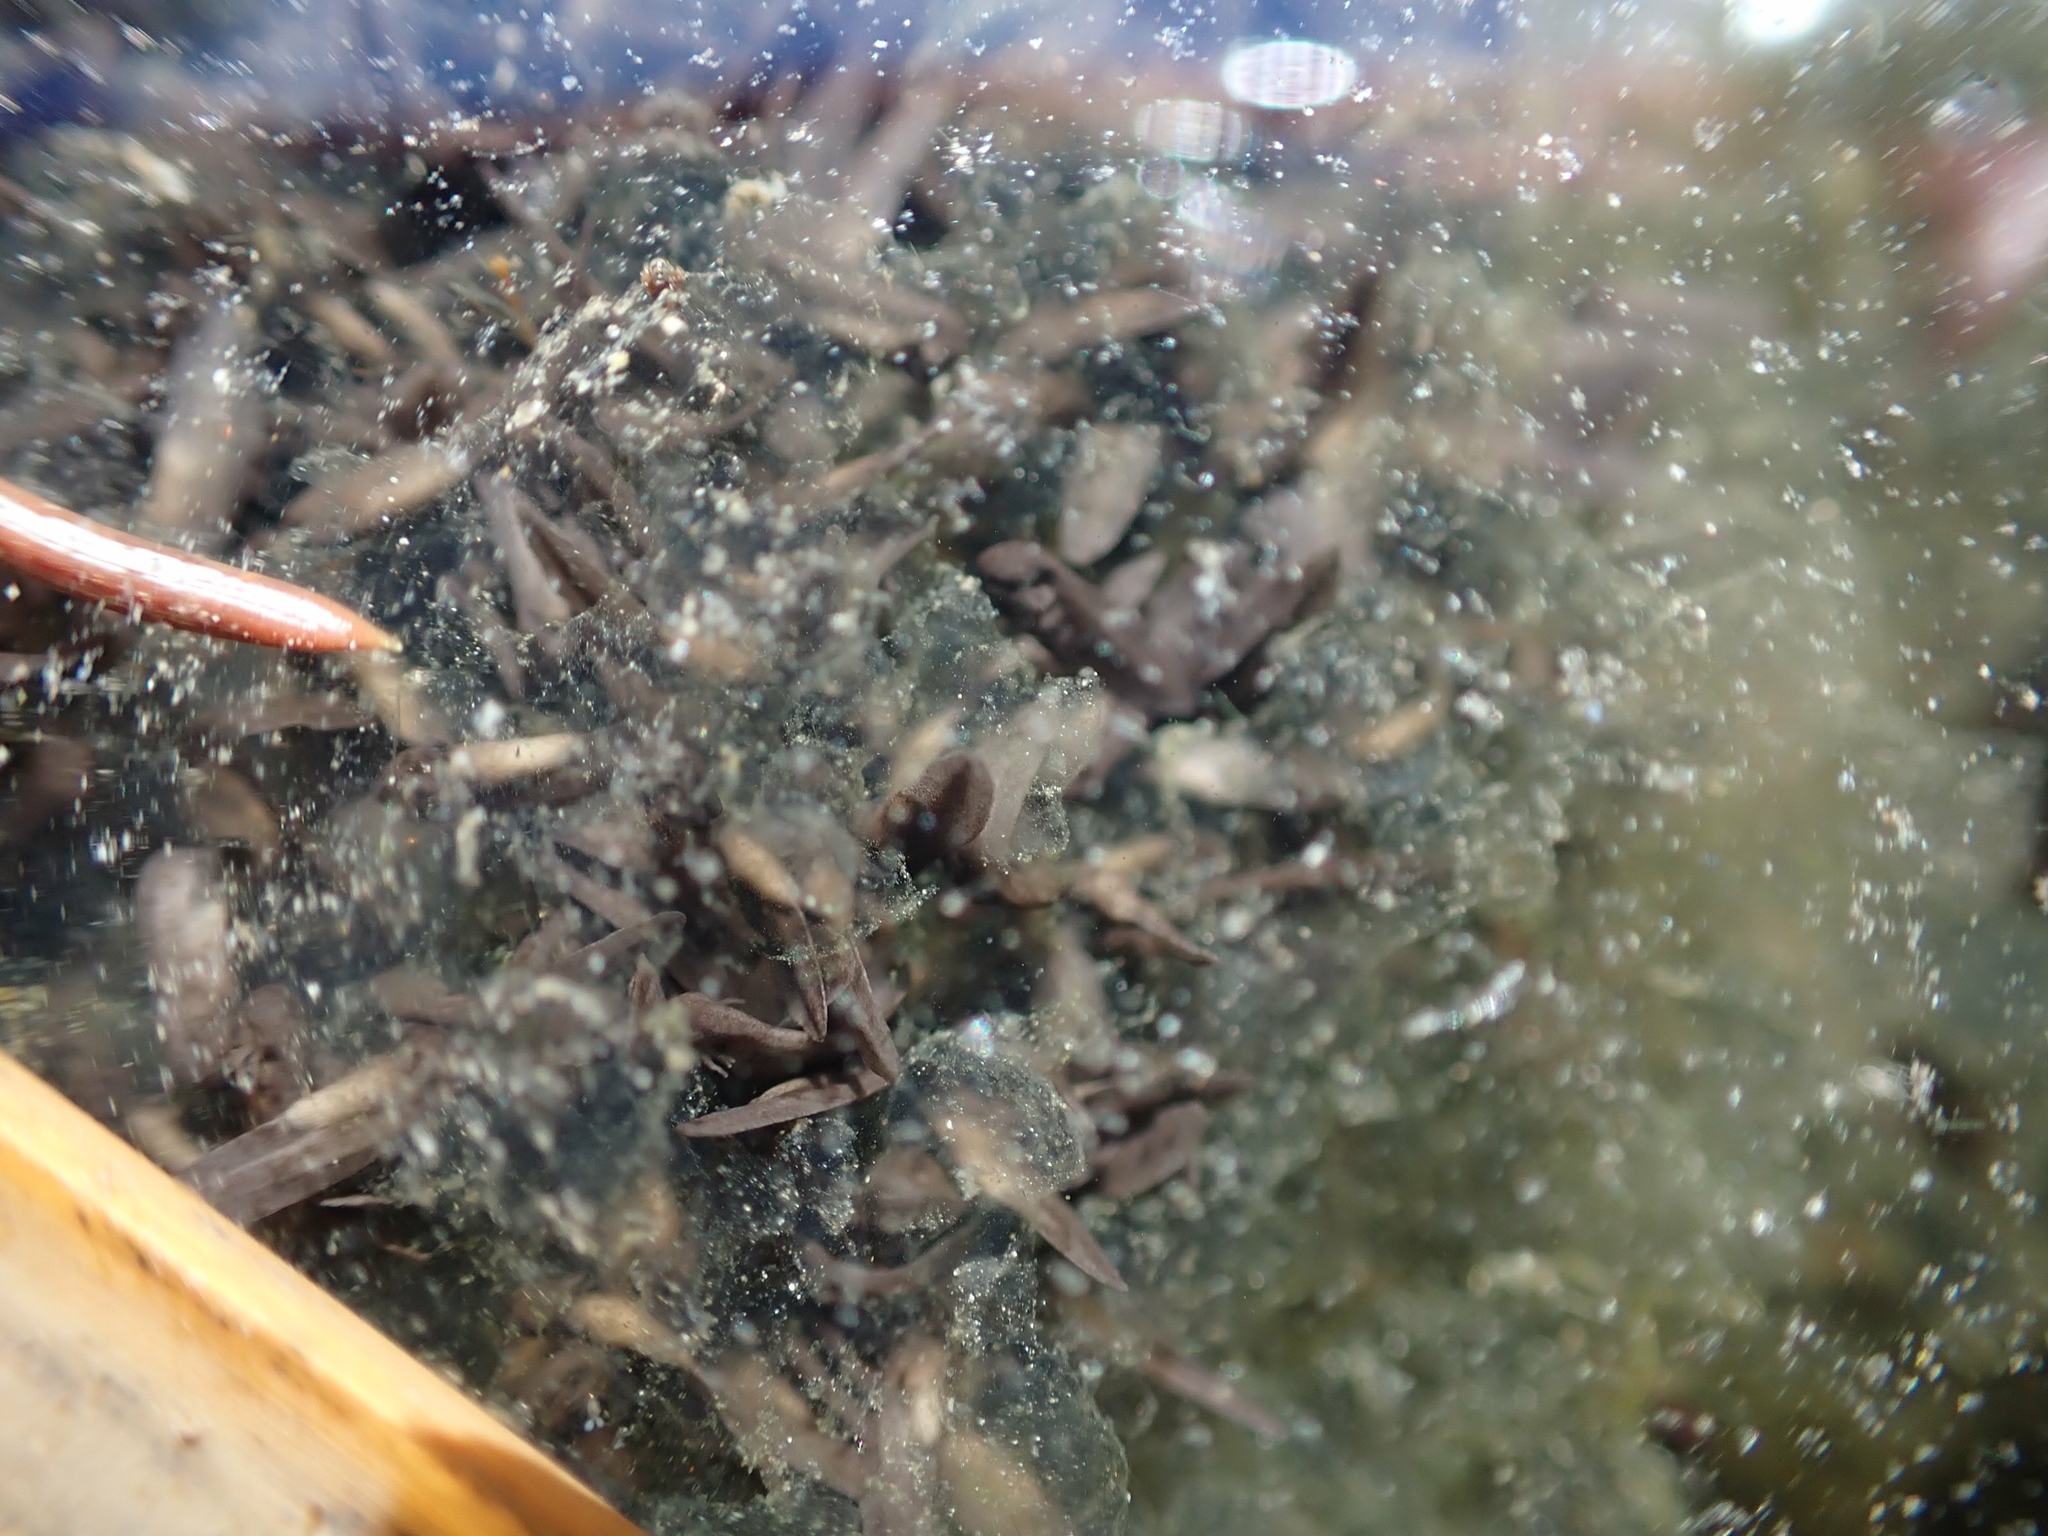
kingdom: Animalia
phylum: Chordata
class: Amphibia
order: Anura
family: Ranidae
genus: Lithobates
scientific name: Lithobates sylvaticus
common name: Wood frog
